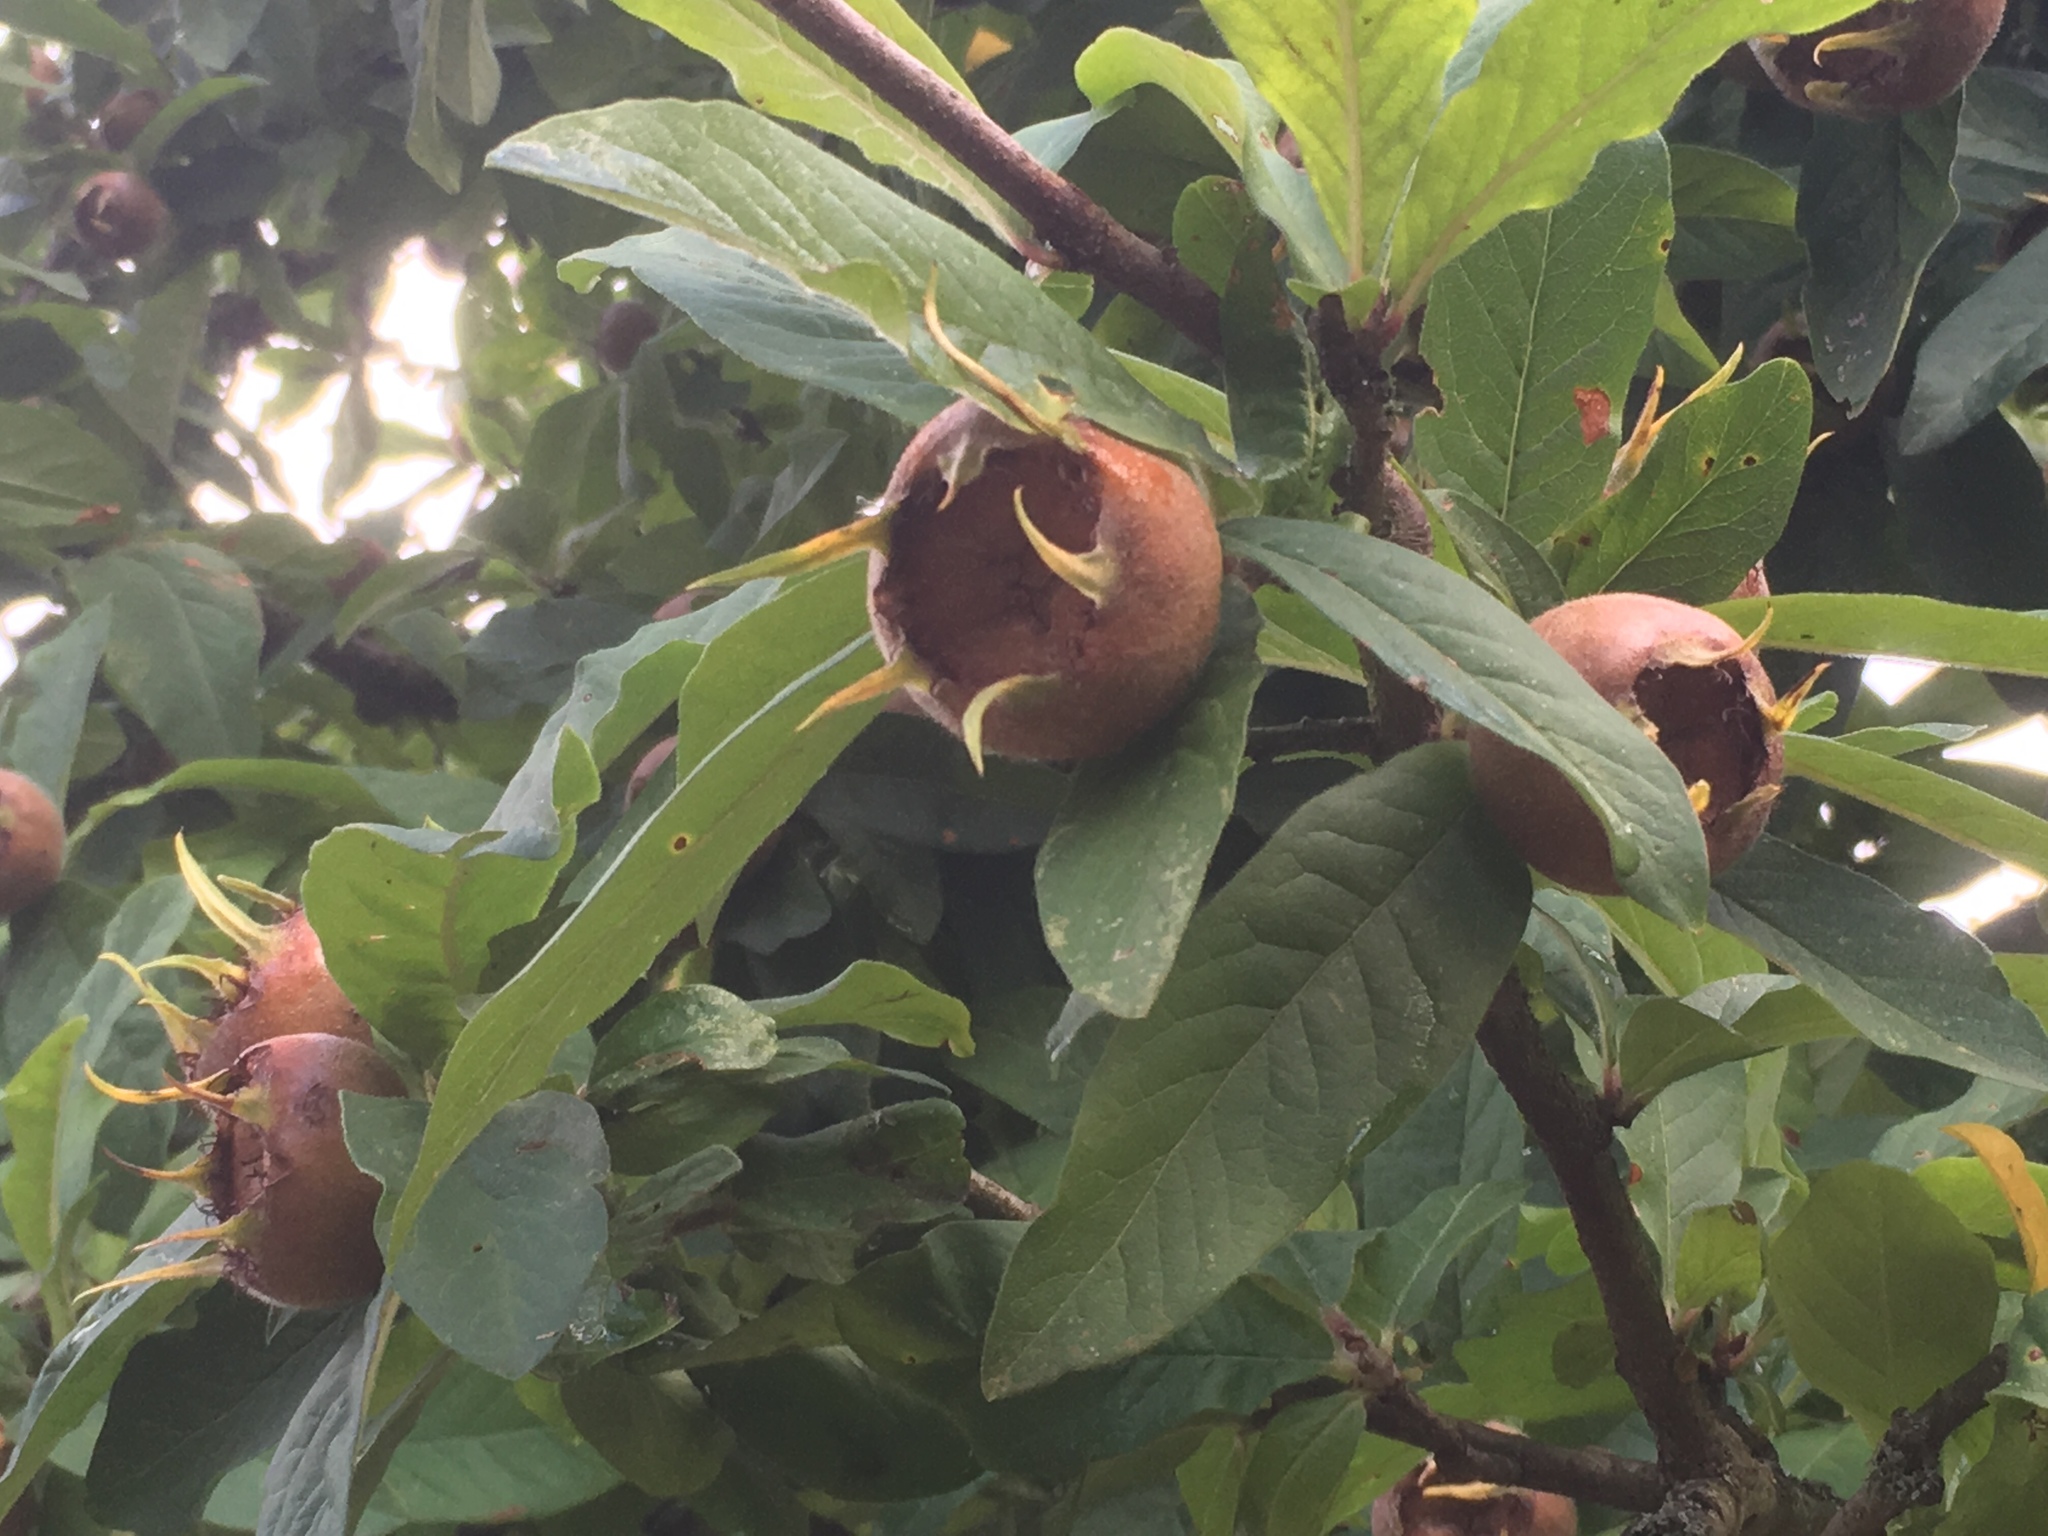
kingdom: Plantae
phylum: Tracheophyta
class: Magnoliopsida
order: Rosales
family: Rosaceae
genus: Mespilus
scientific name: Mespilus germanica
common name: Medlar
